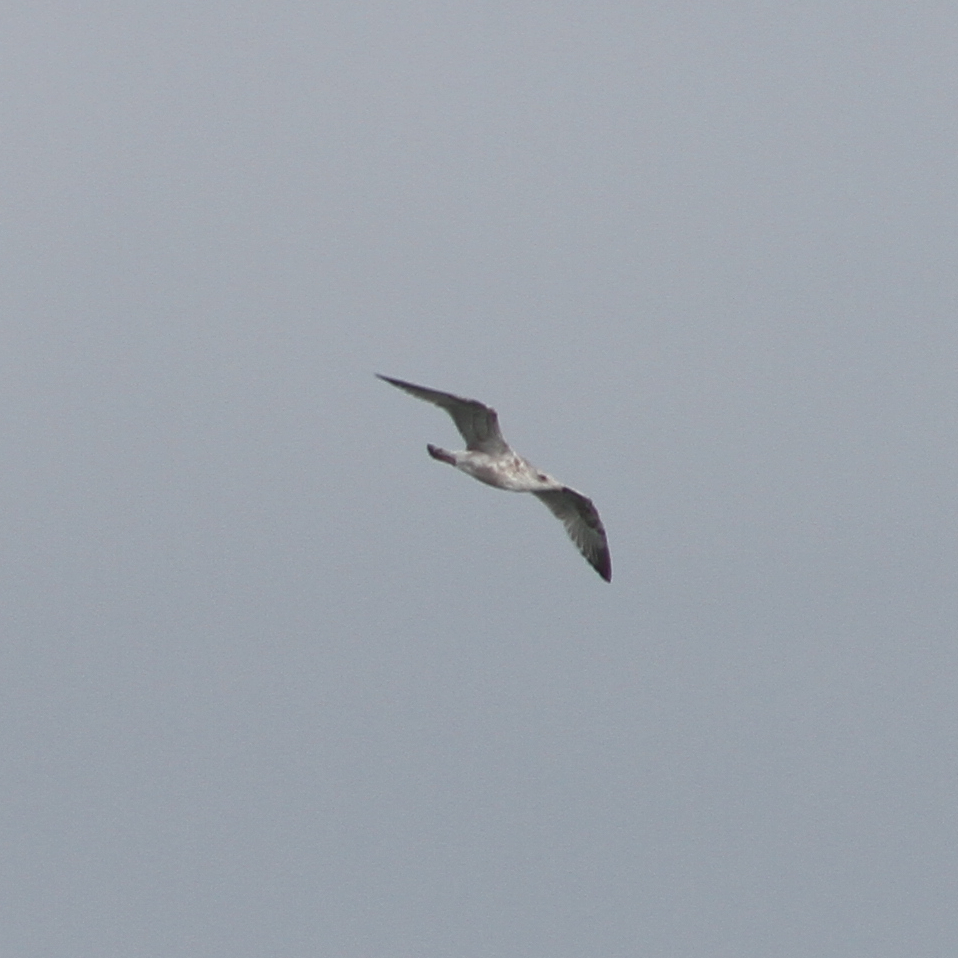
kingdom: Animalia
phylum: Chordata
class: Aves
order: Charadriiformes
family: Laridae
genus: Larus
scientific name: Larus argentatus
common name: Herring gull
